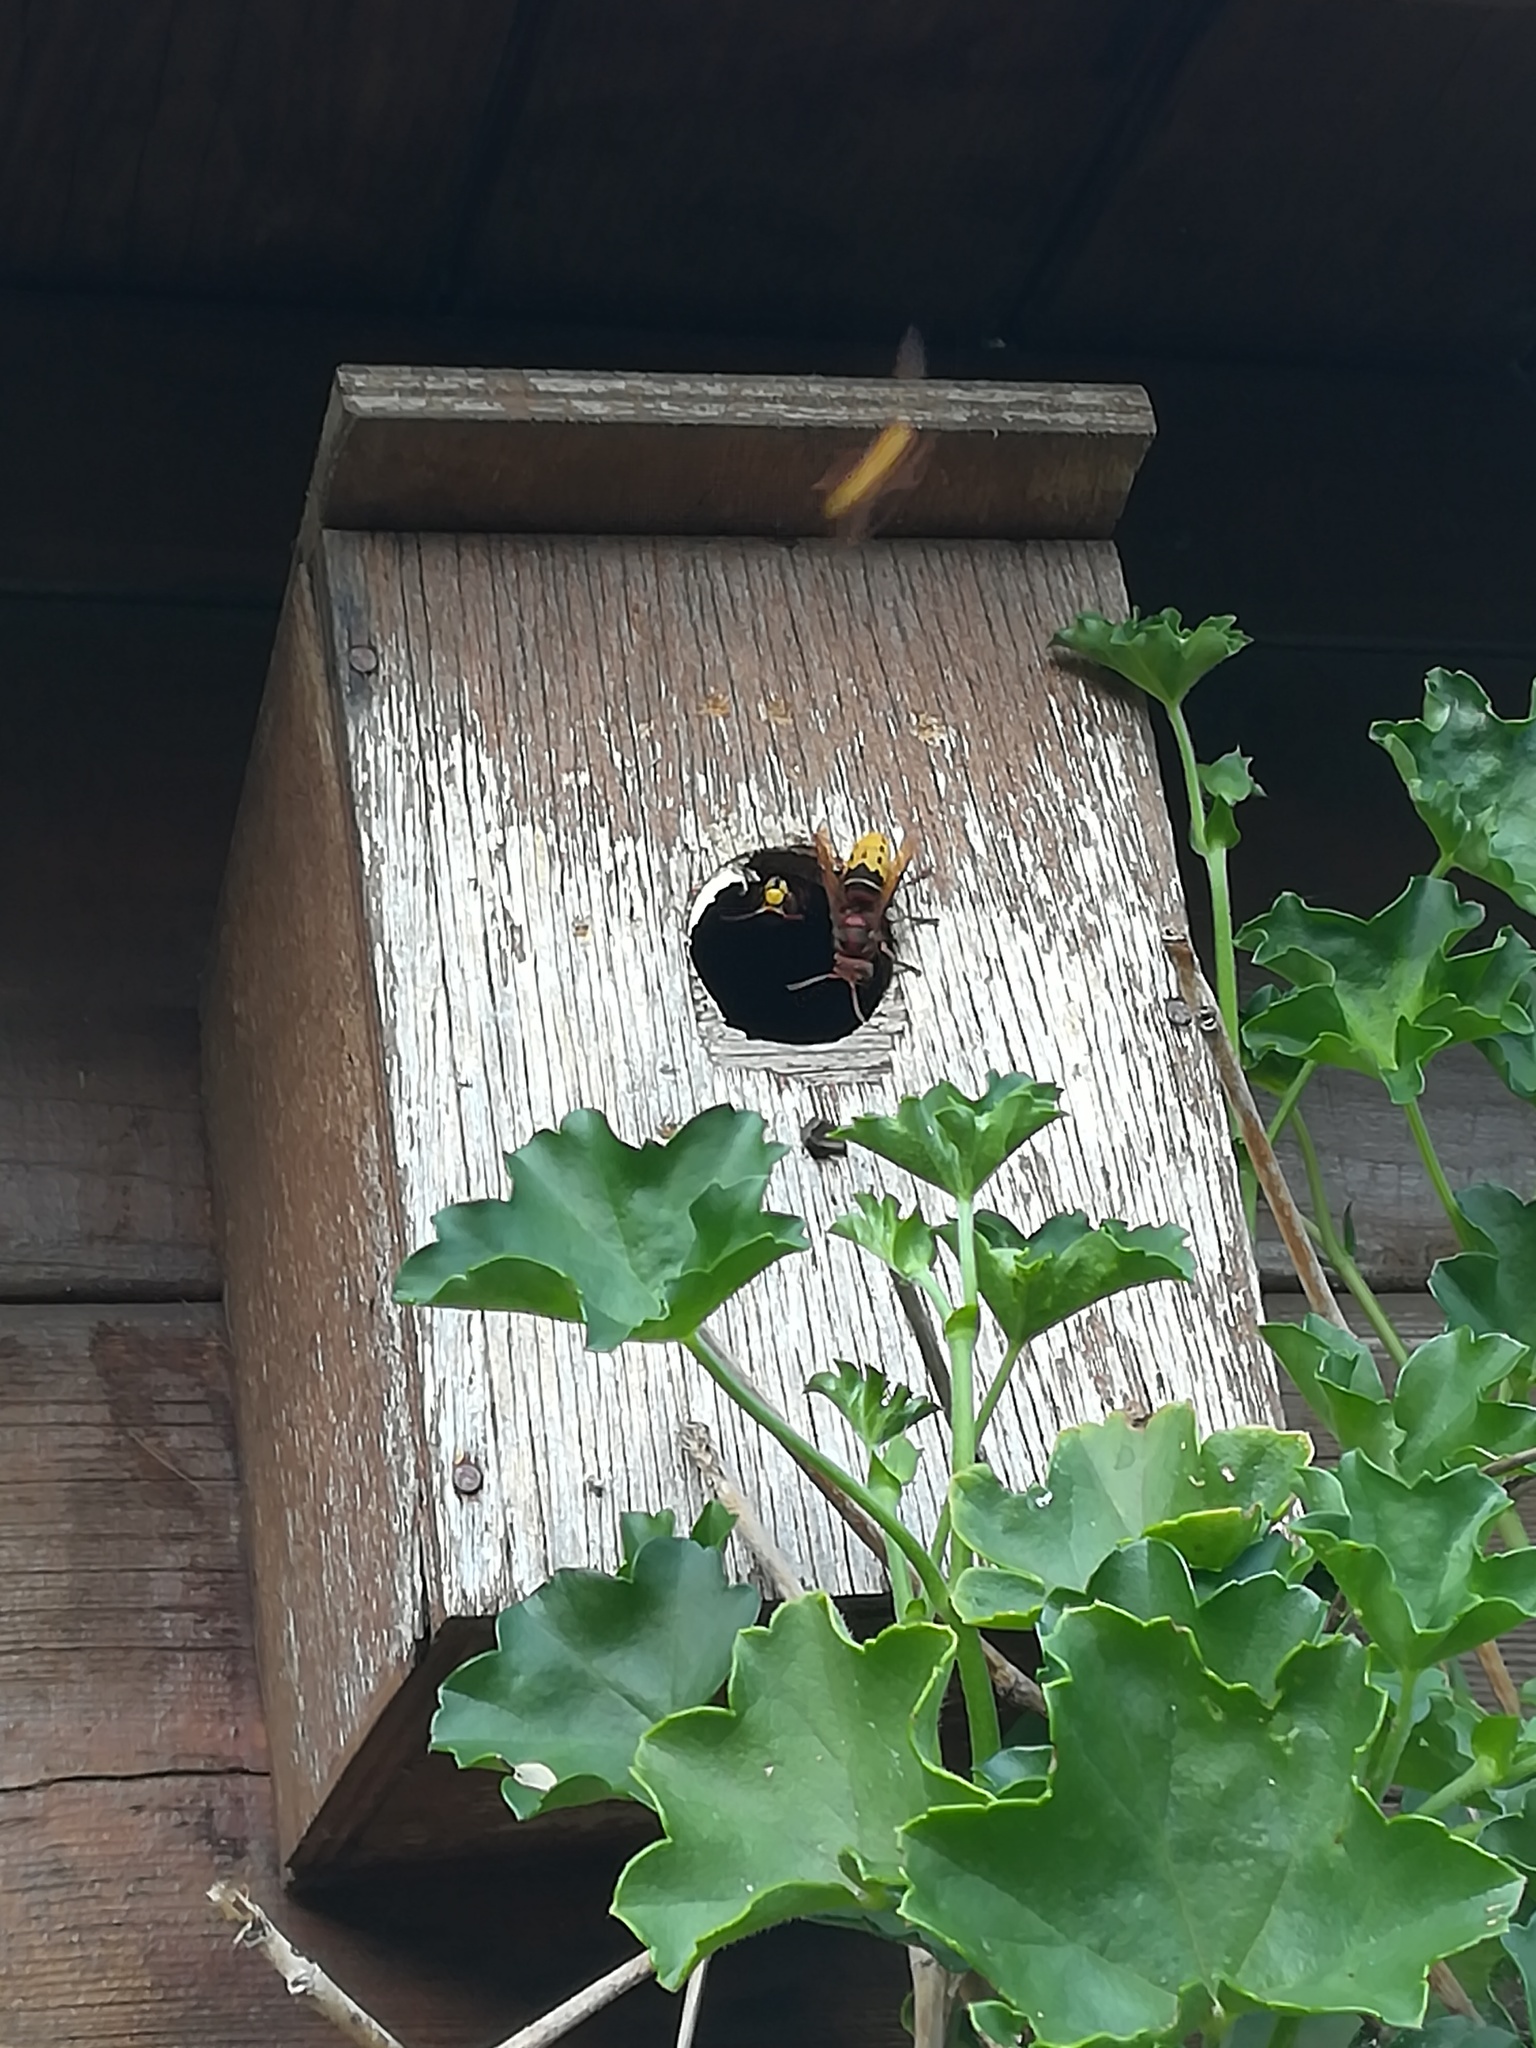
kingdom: Animalia
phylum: Arthropoda
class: Insecta
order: Hymenoptera
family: Vespidae
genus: Vespa
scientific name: Vespa crabro
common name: Hornet
